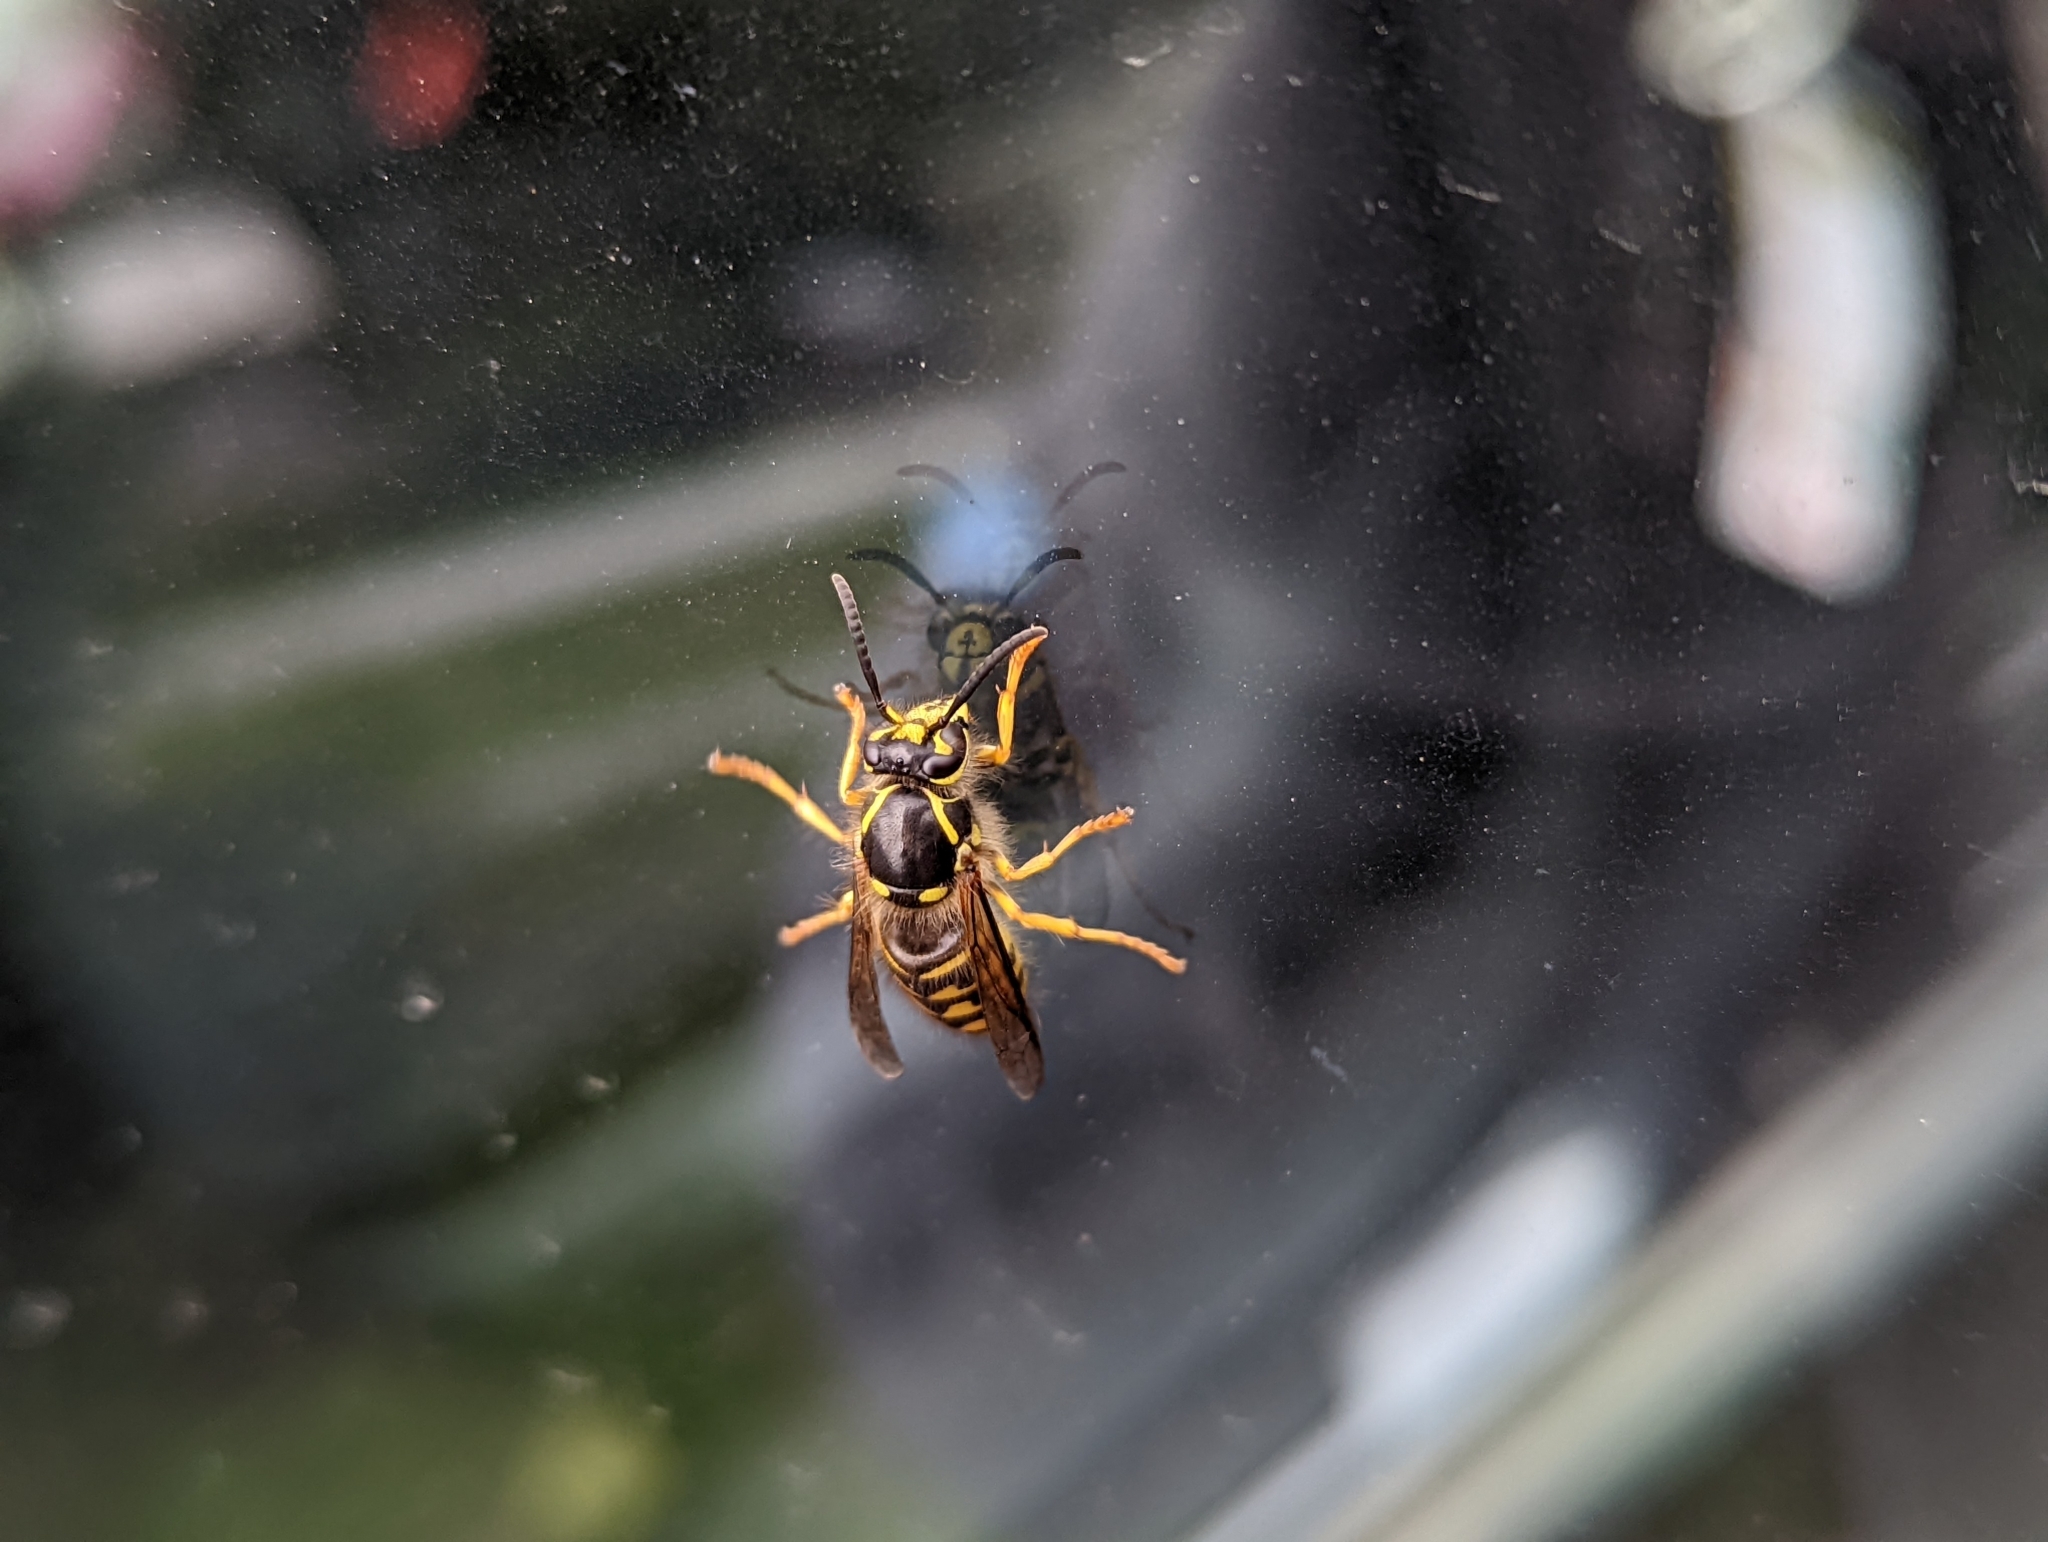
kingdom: Animalia
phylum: Arthropoda
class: Insecta
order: Hymenoptera
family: Vespidae
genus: Dolichovespula
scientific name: Dolichovespula arenaria
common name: Aerial yellowjacket
